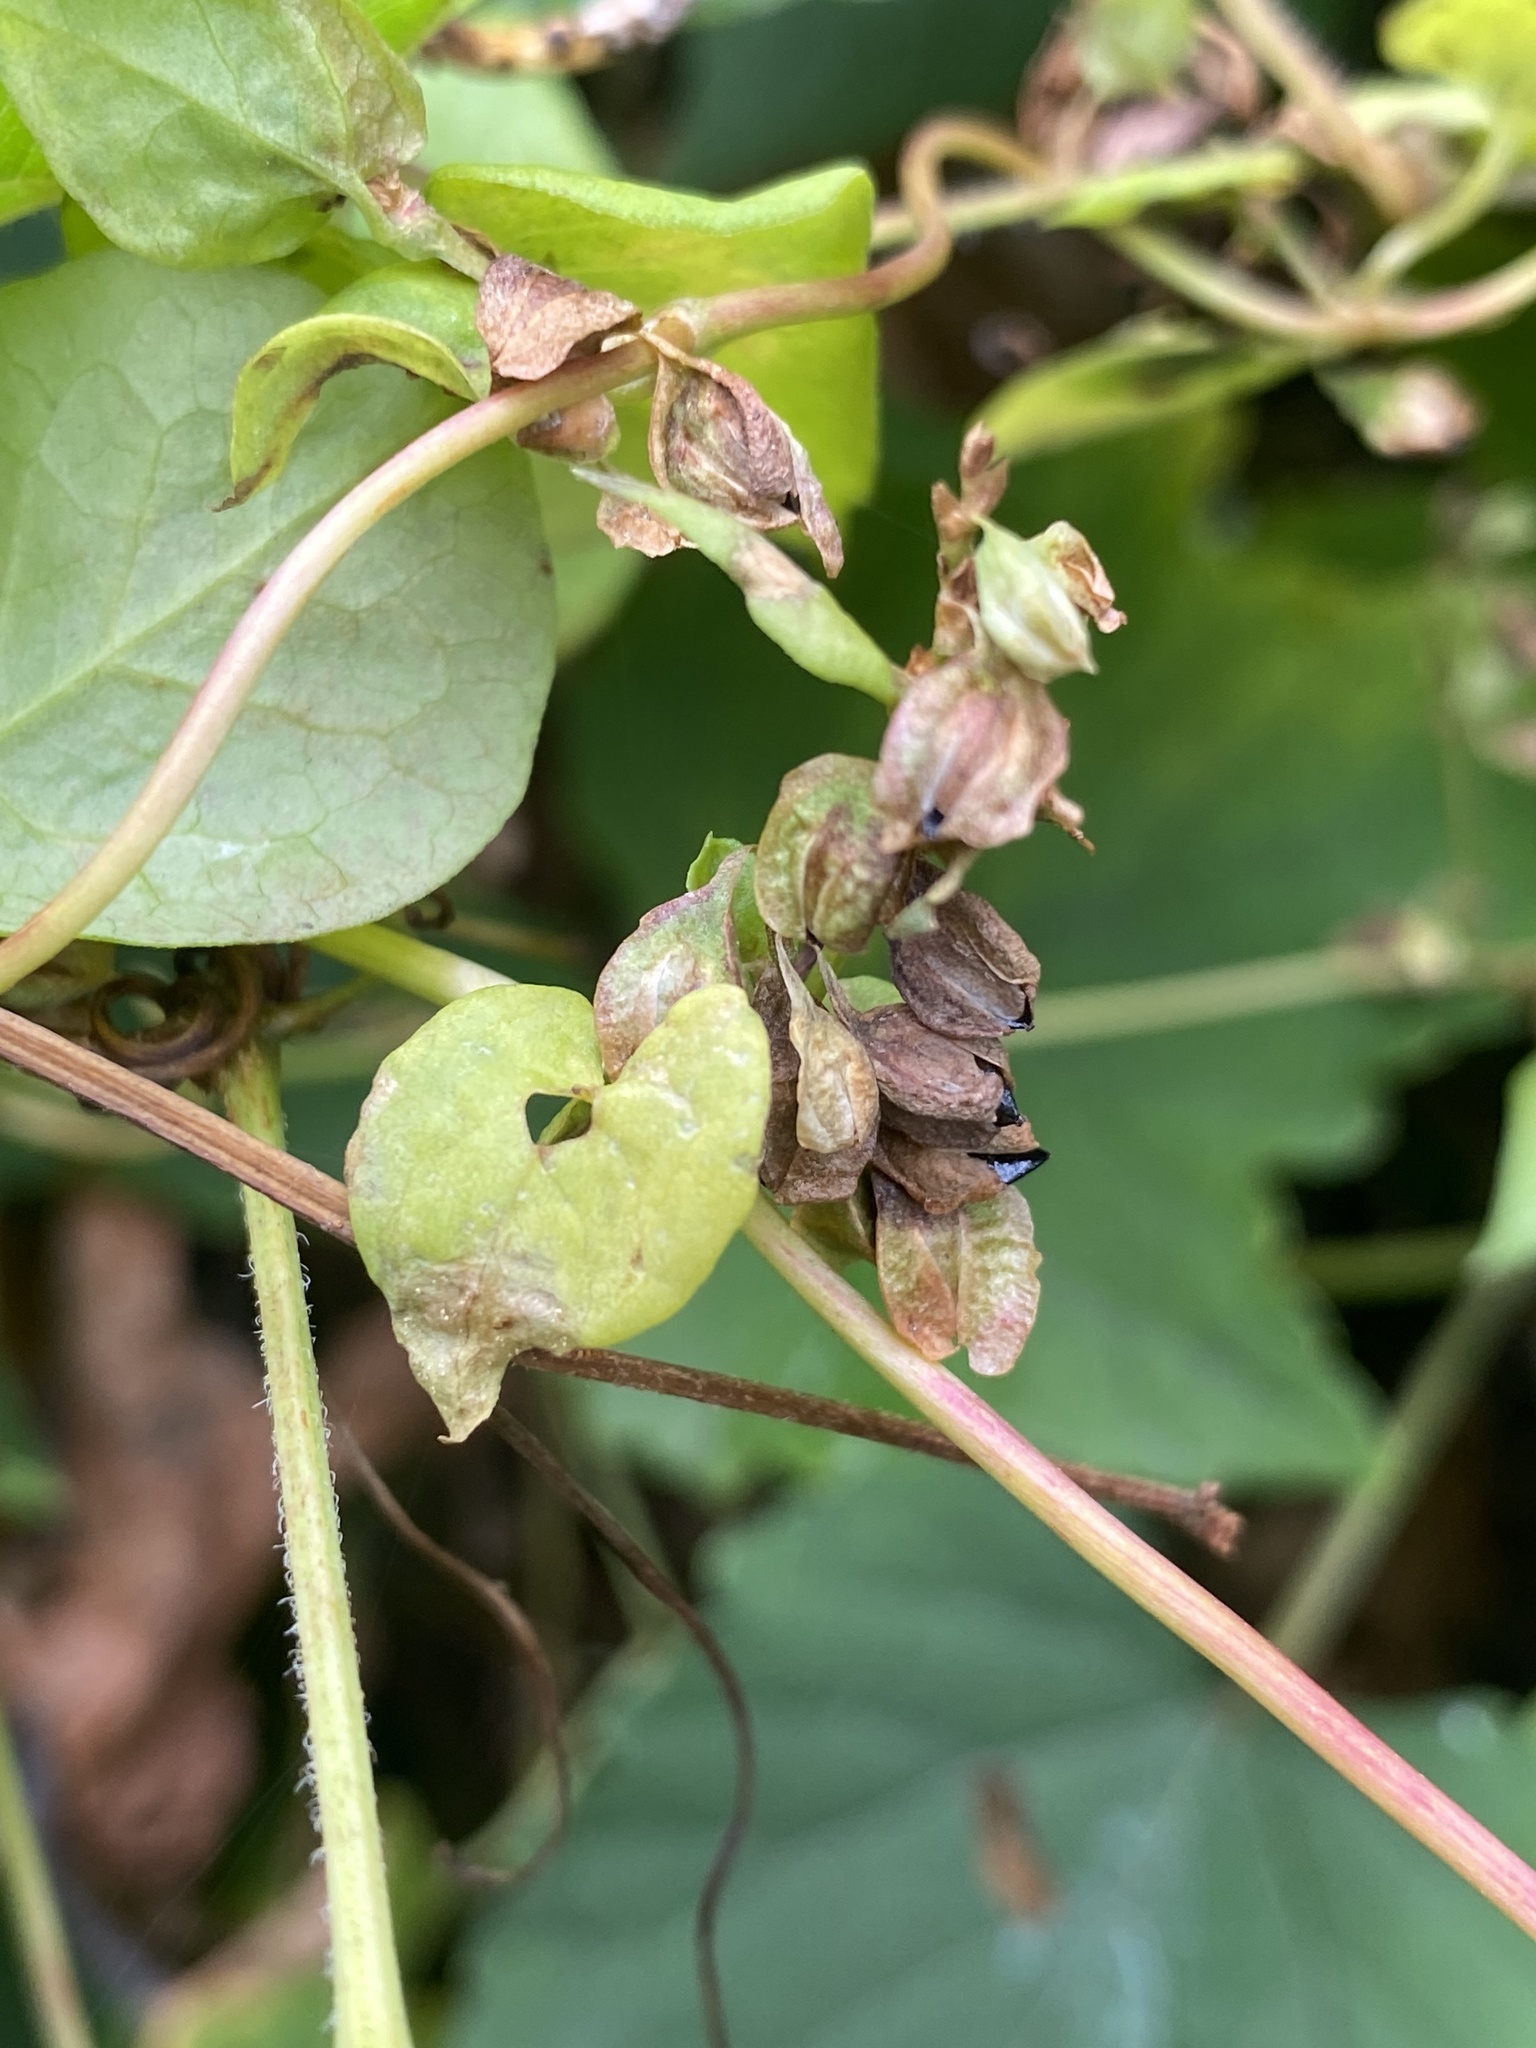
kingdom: Plantae
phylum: Tracheophyta
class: Magnoliopsida
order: Caryophyllales
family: Polygonaceae
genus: Fallopia
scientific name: Fallopia scandens
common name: Climbing false buckwheat
